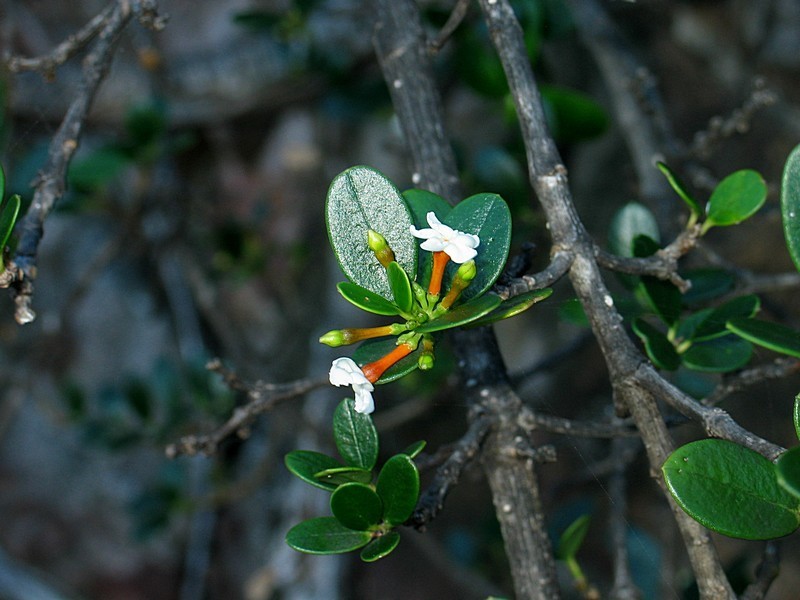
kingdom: Plantae
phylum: Tracheophyta
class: Magnoliopsida
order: Gentianales
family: Apocynaceae
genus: Alyxia
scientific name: Alyxia buxifolia
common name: Dysentery-bush
